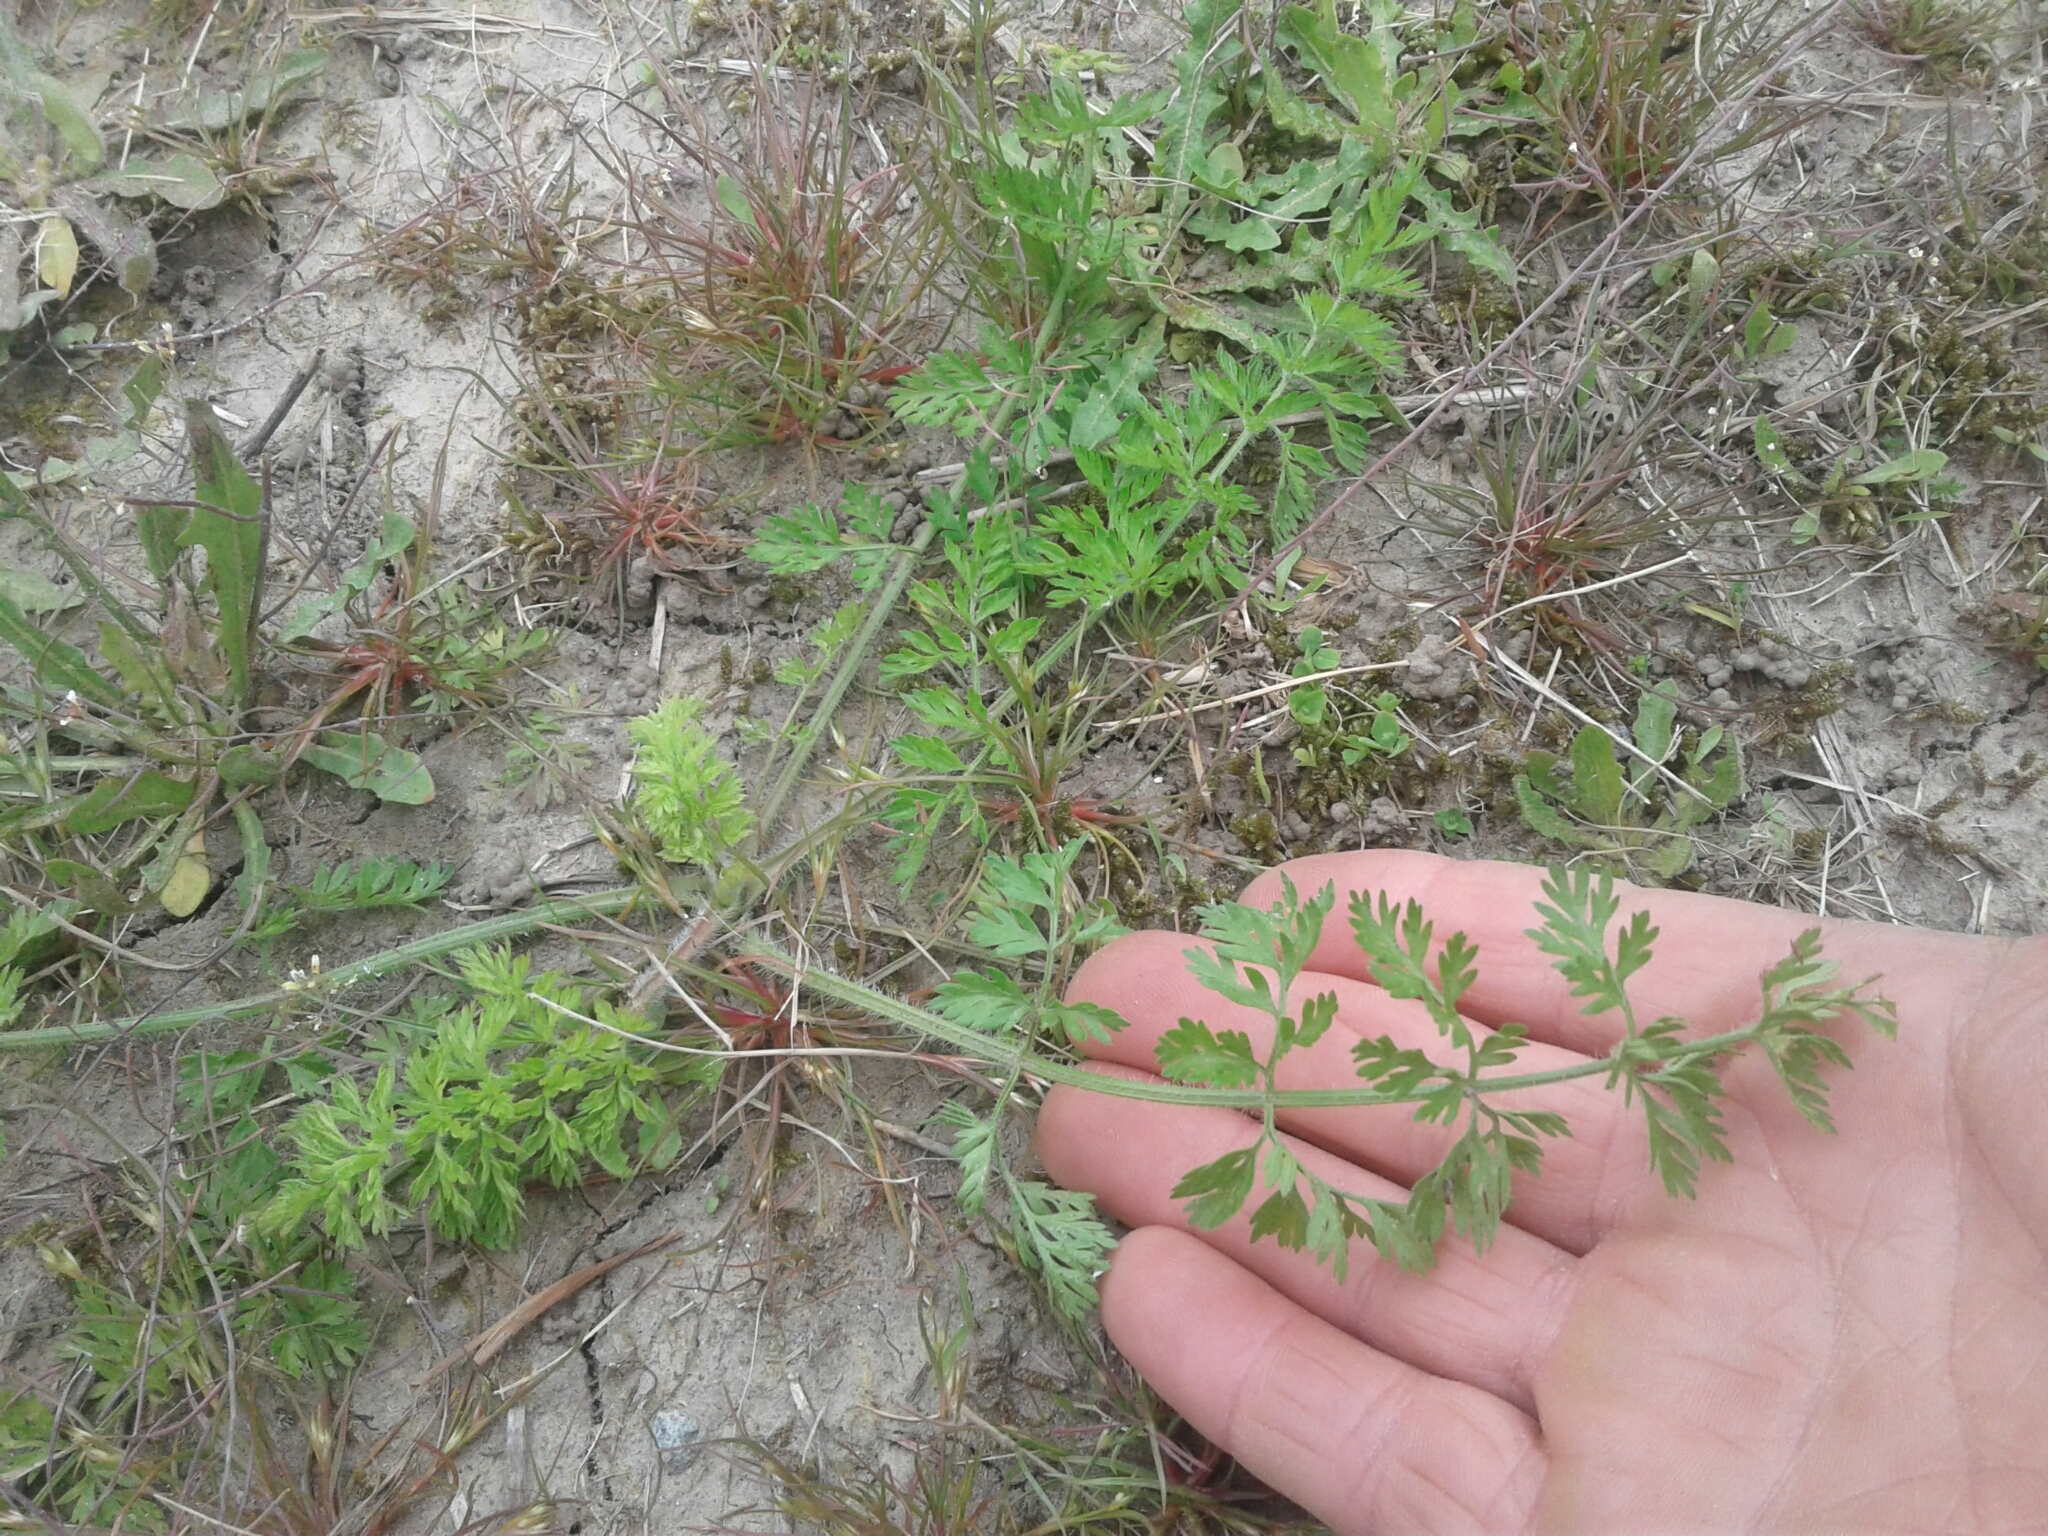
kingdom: Plantae
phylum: Tracheophyta
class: Magnoliopsida
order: Apiales
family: Apiaceae
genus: Daucus
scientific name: Daucus carota
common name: Wild carrot
